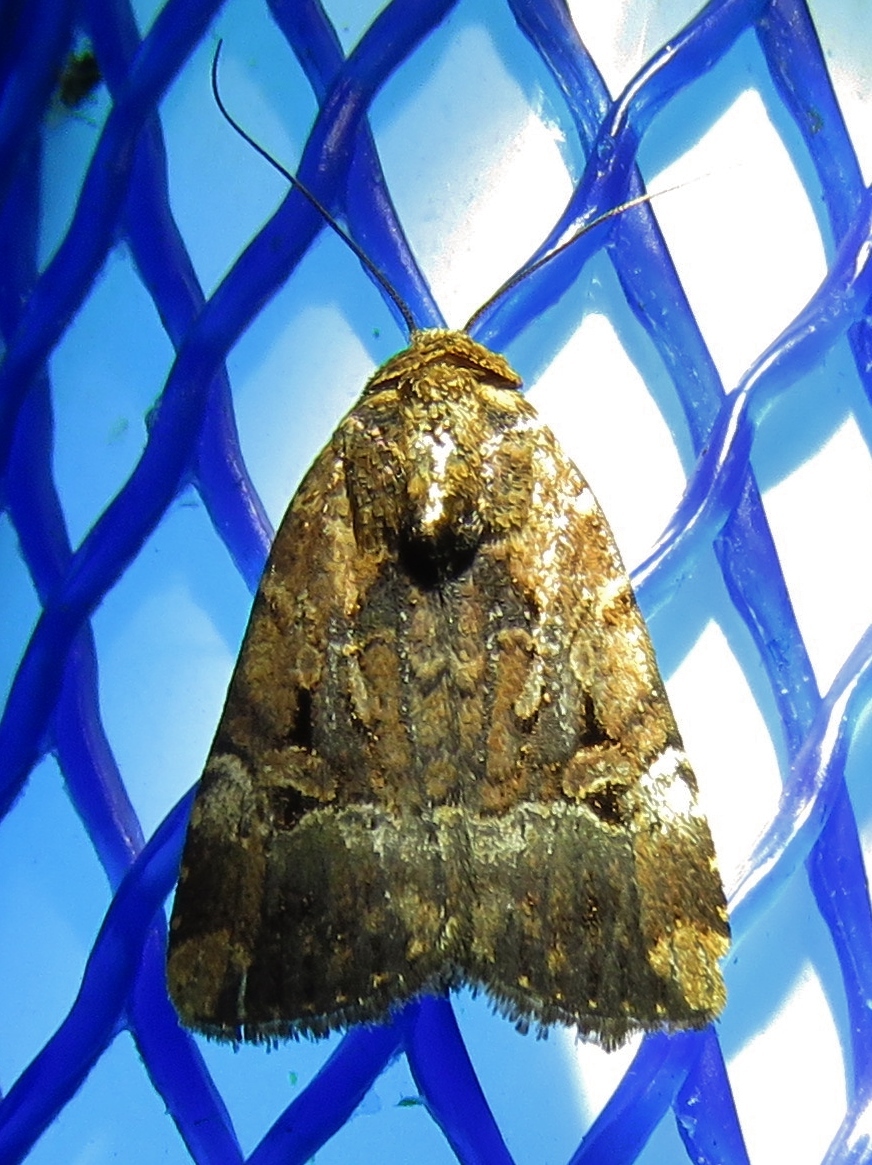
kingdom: Animalia
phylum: Arthropoda
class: Insecta
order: Lepidoptera
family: Noctuidae
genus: Elaphria
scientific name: Elaphria chalcedonia
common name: Chalcedony midget
